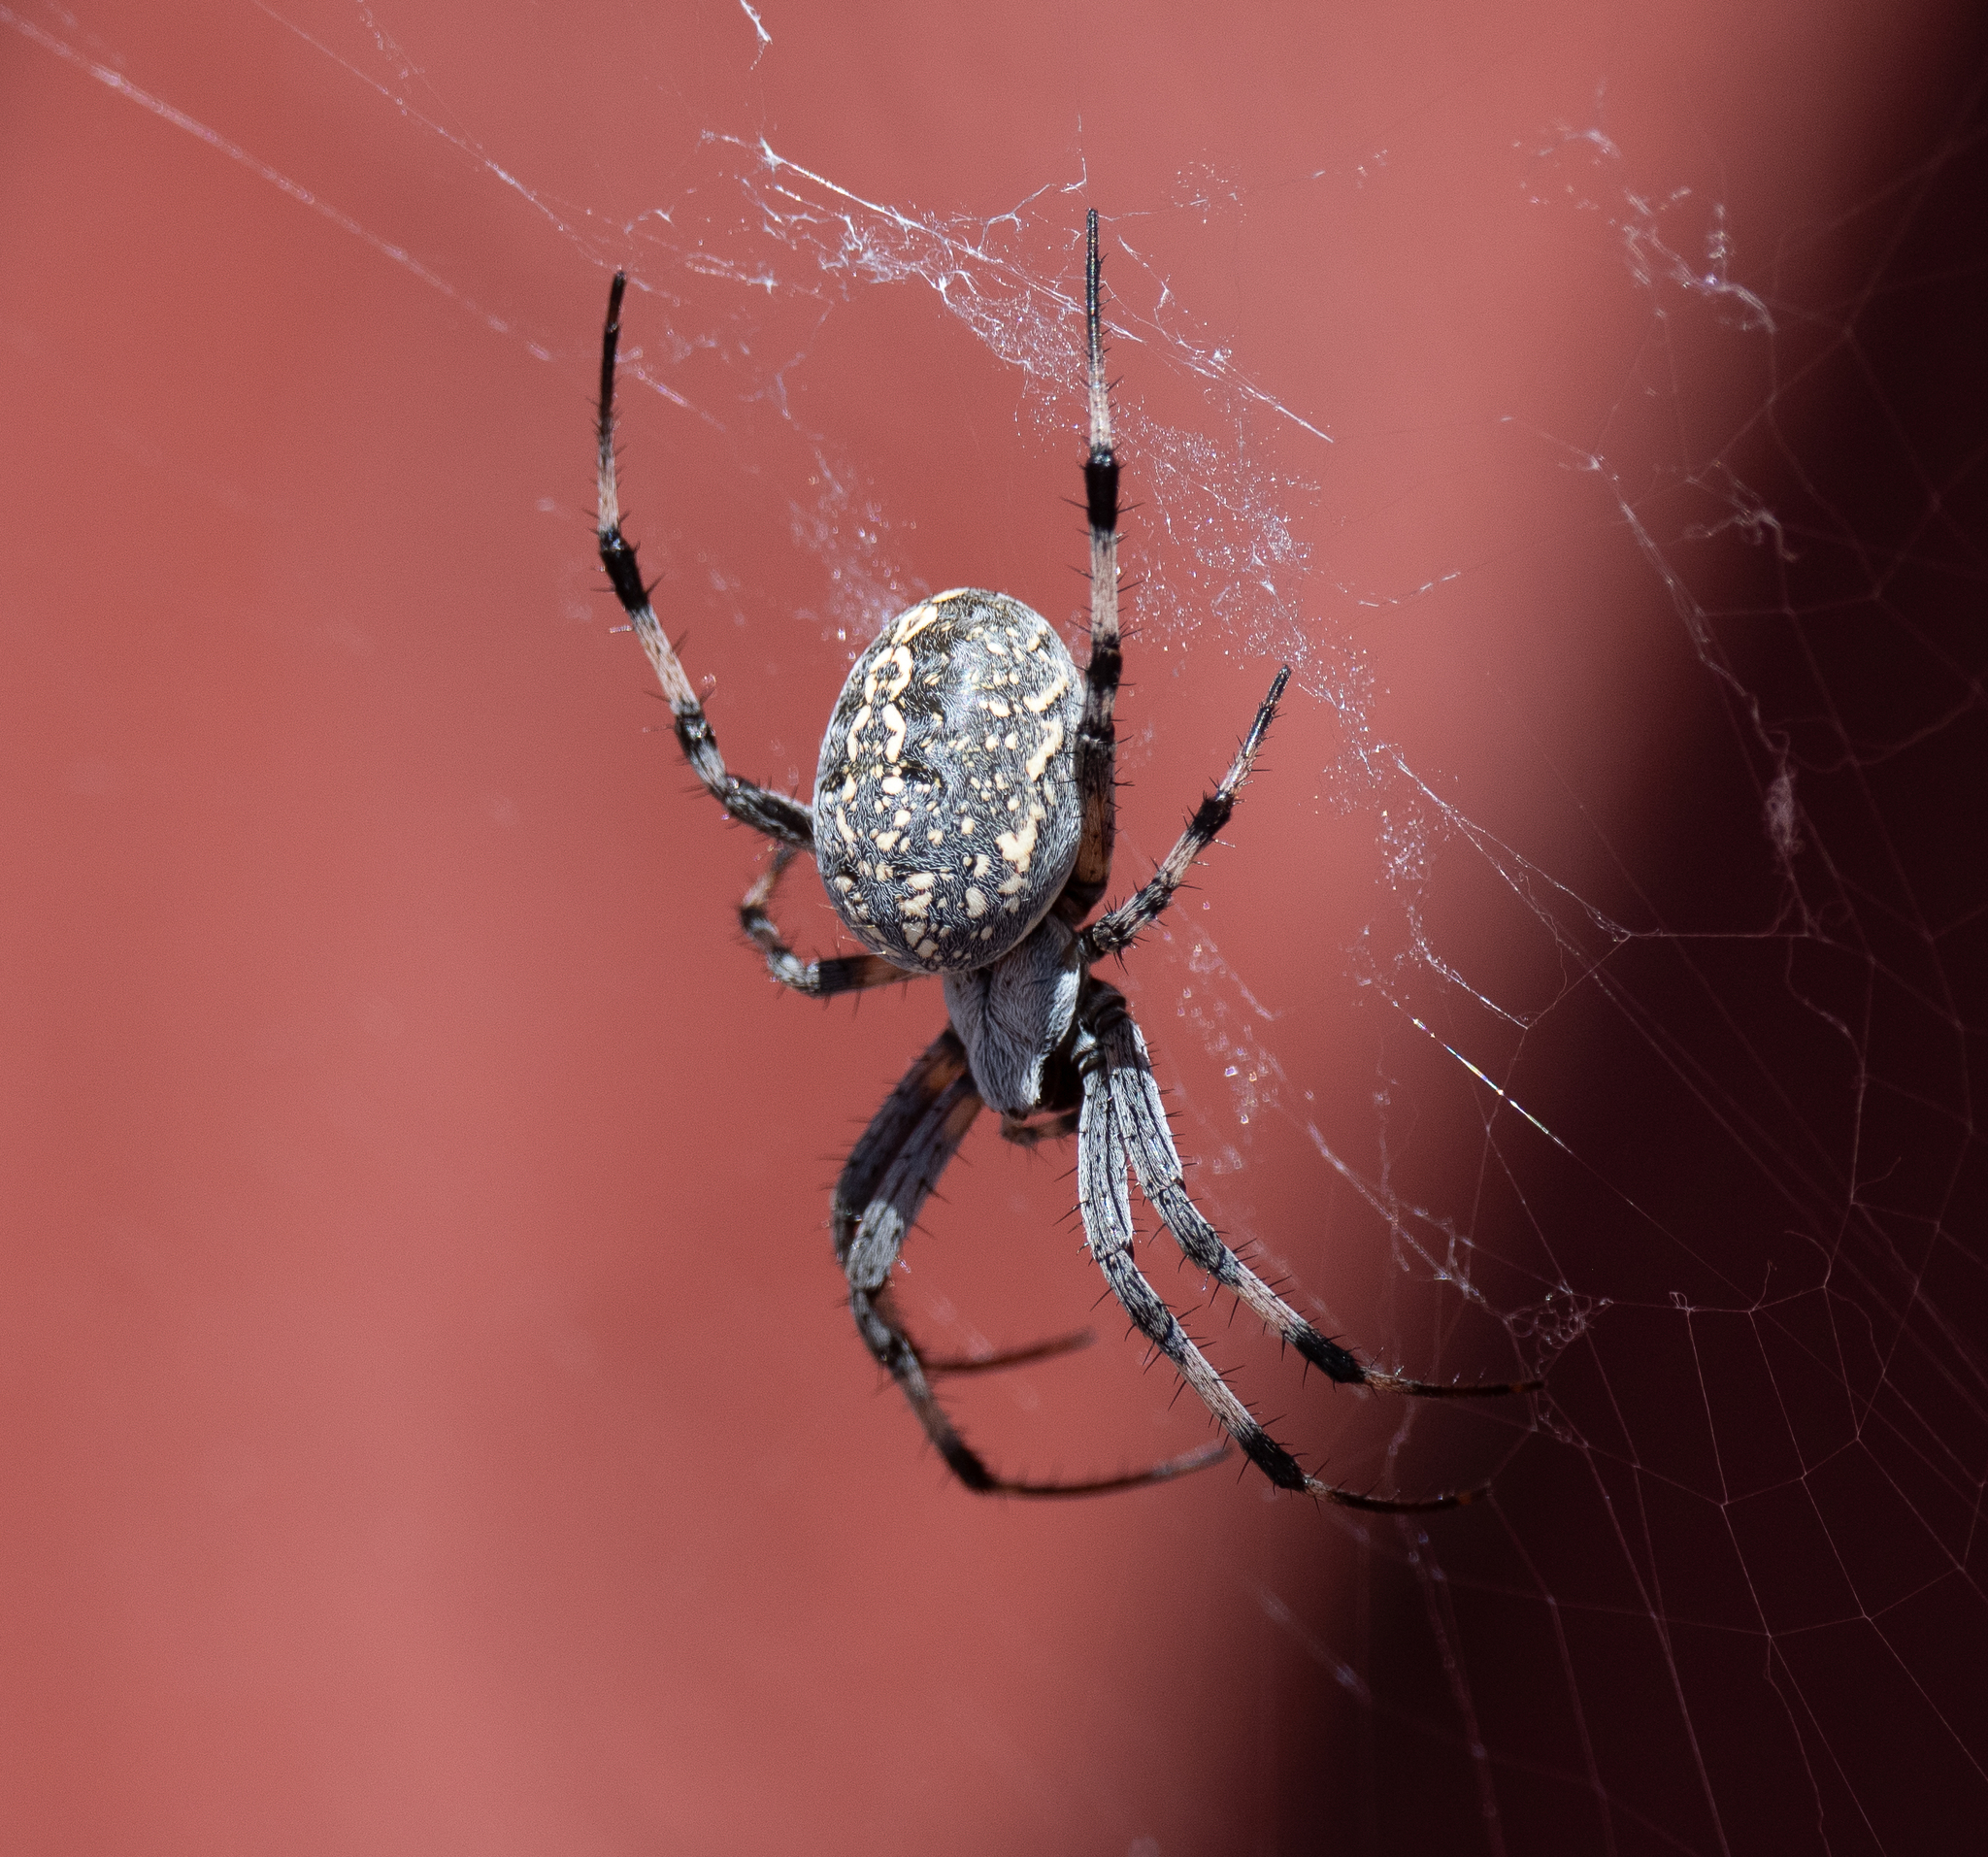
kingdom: Animalia
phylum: Arthropoda
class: Arachnida
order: Araneae
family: Araneidae
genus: Neoscona
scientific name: Neoscona oaxacensis
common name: Orb weavers
